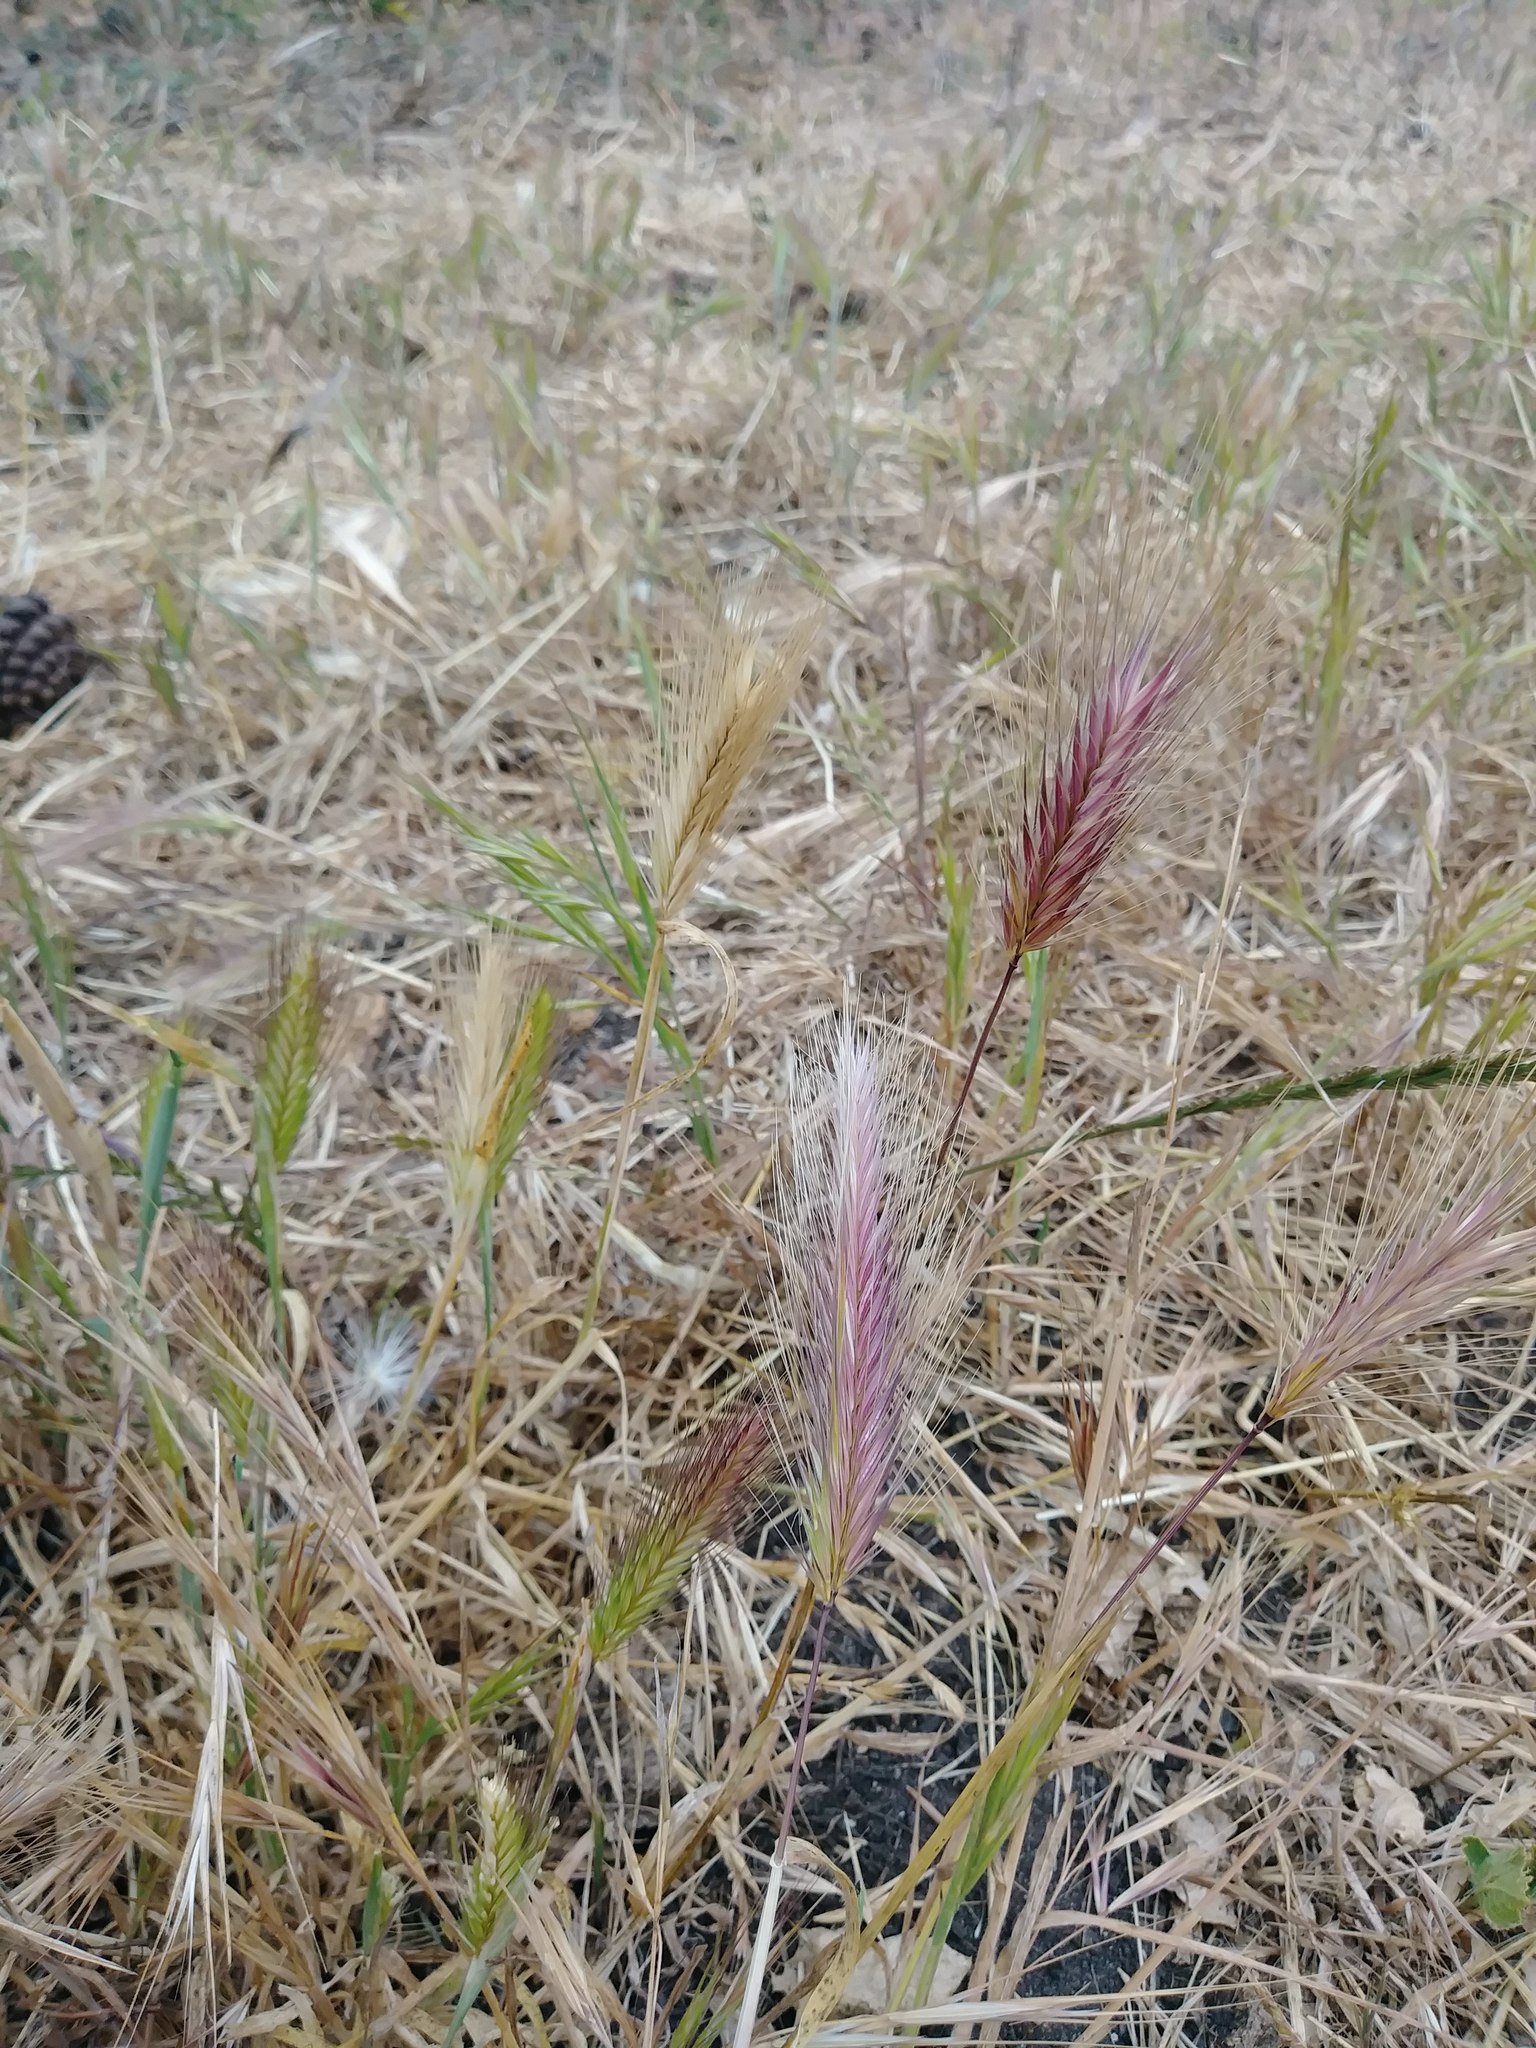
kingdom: Plantae
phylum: Tracheophyta
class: Liliopsida
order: Poales
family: Poaceae
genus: Hordeum
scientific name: Hordeum murinum
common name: Wall barley
